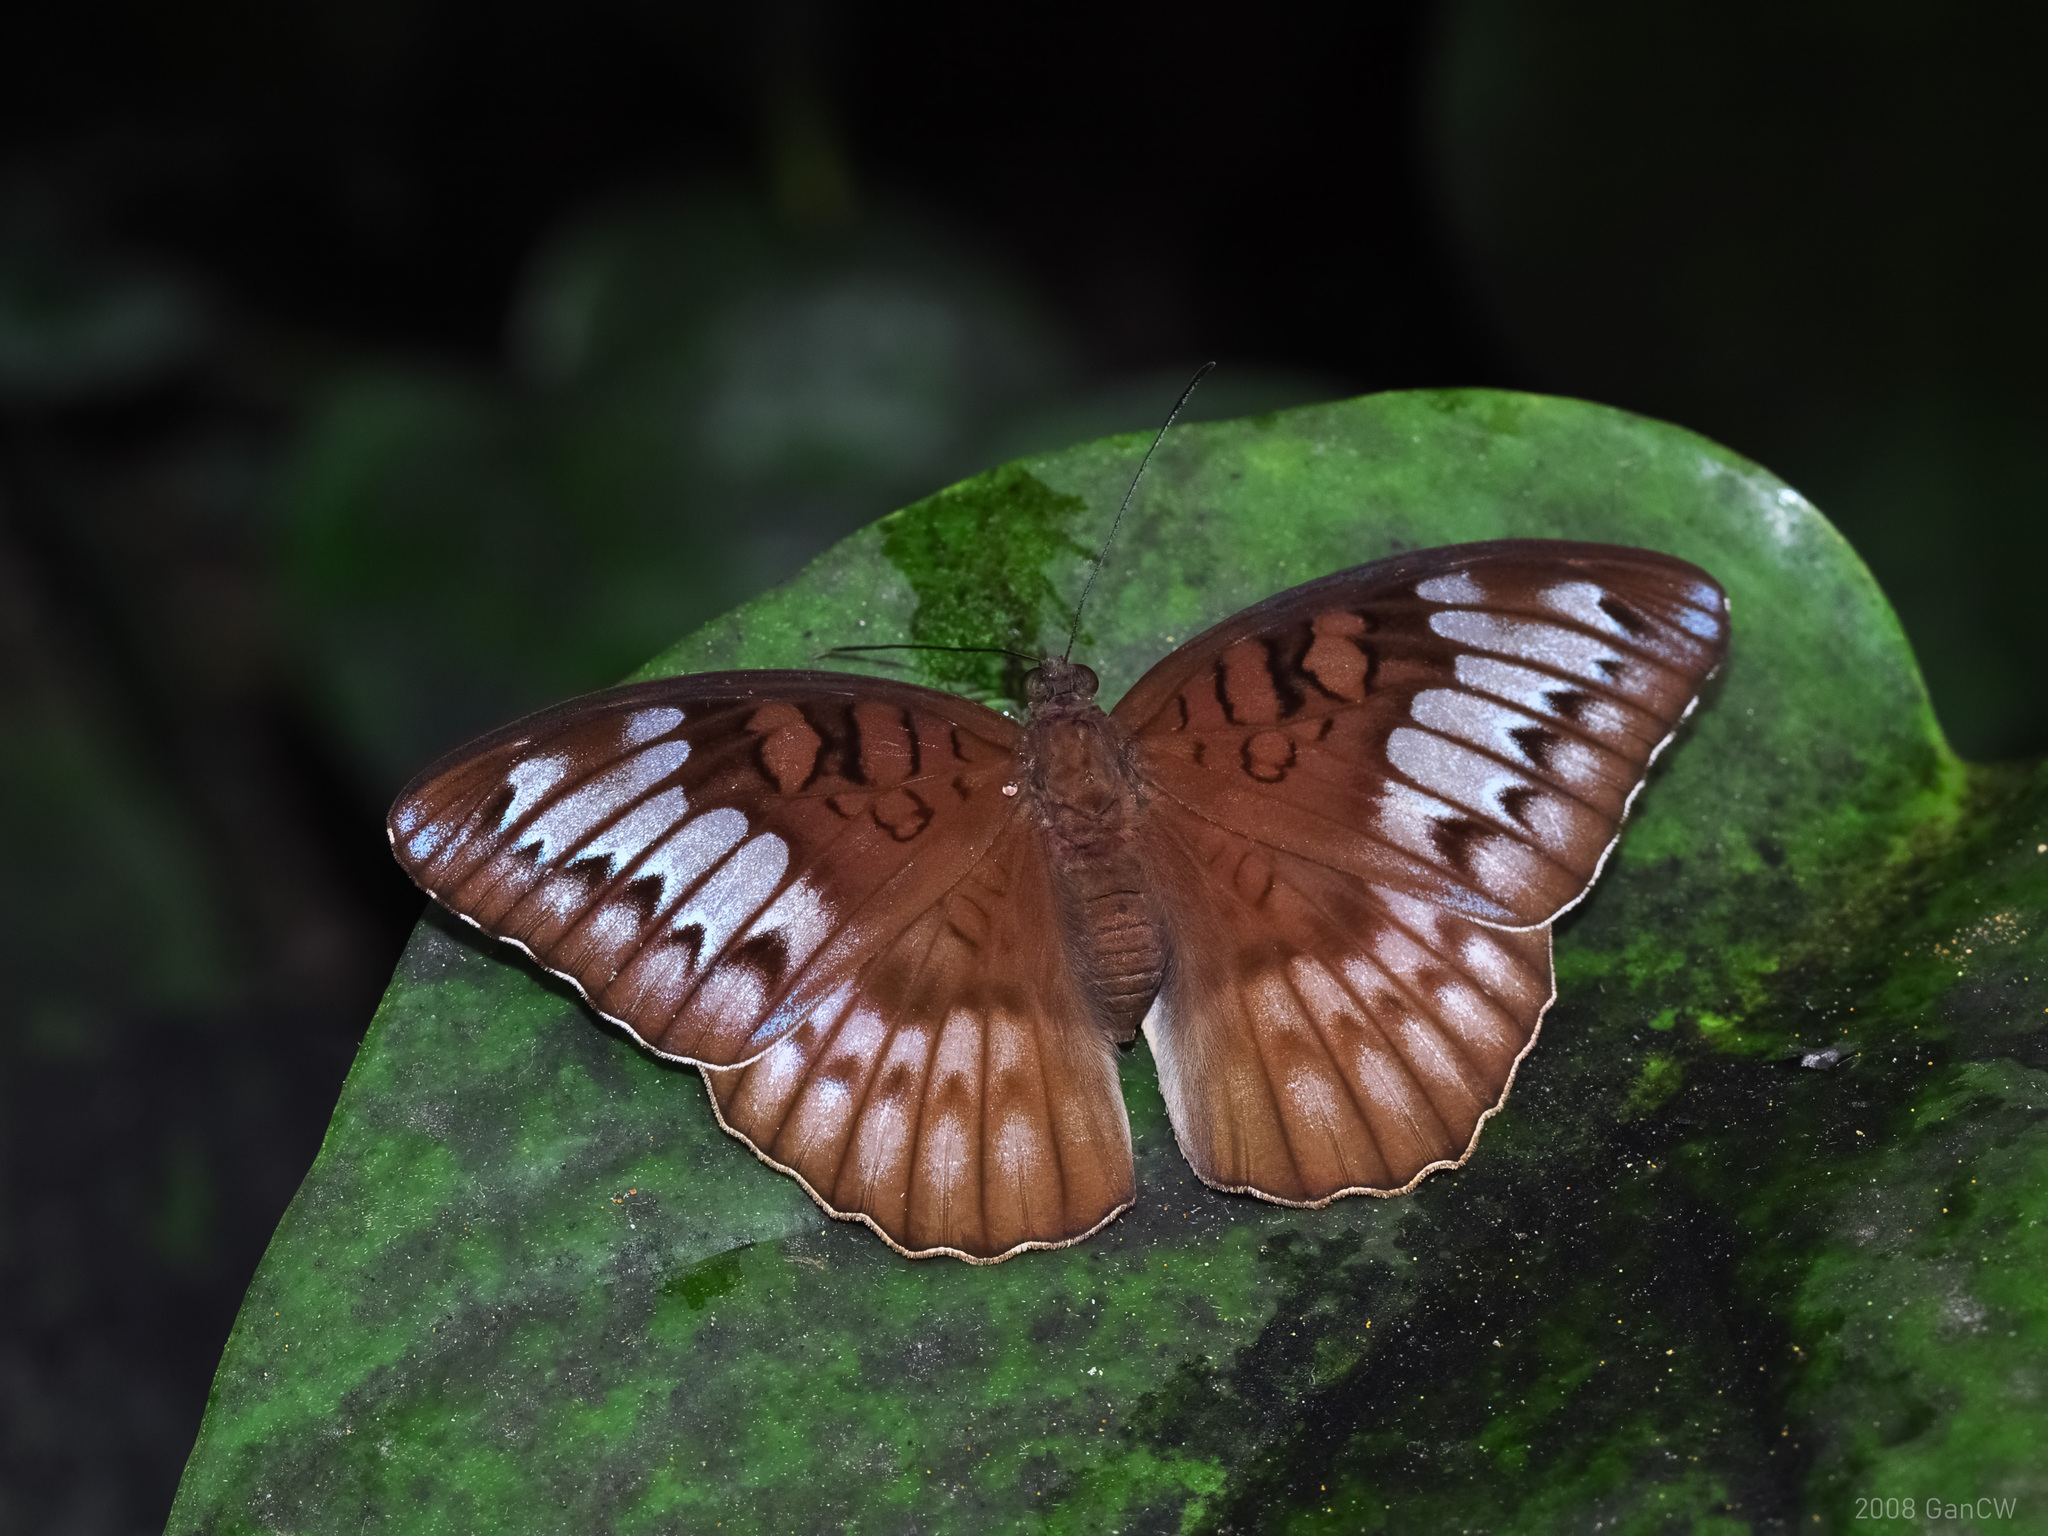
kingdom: Animalia
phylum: Arthropoda
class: Insecta
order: Lepidoptera
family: Nymphalidae
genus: Tanaecia
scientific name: Tanaecia iapis
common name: Horsfield's baron
